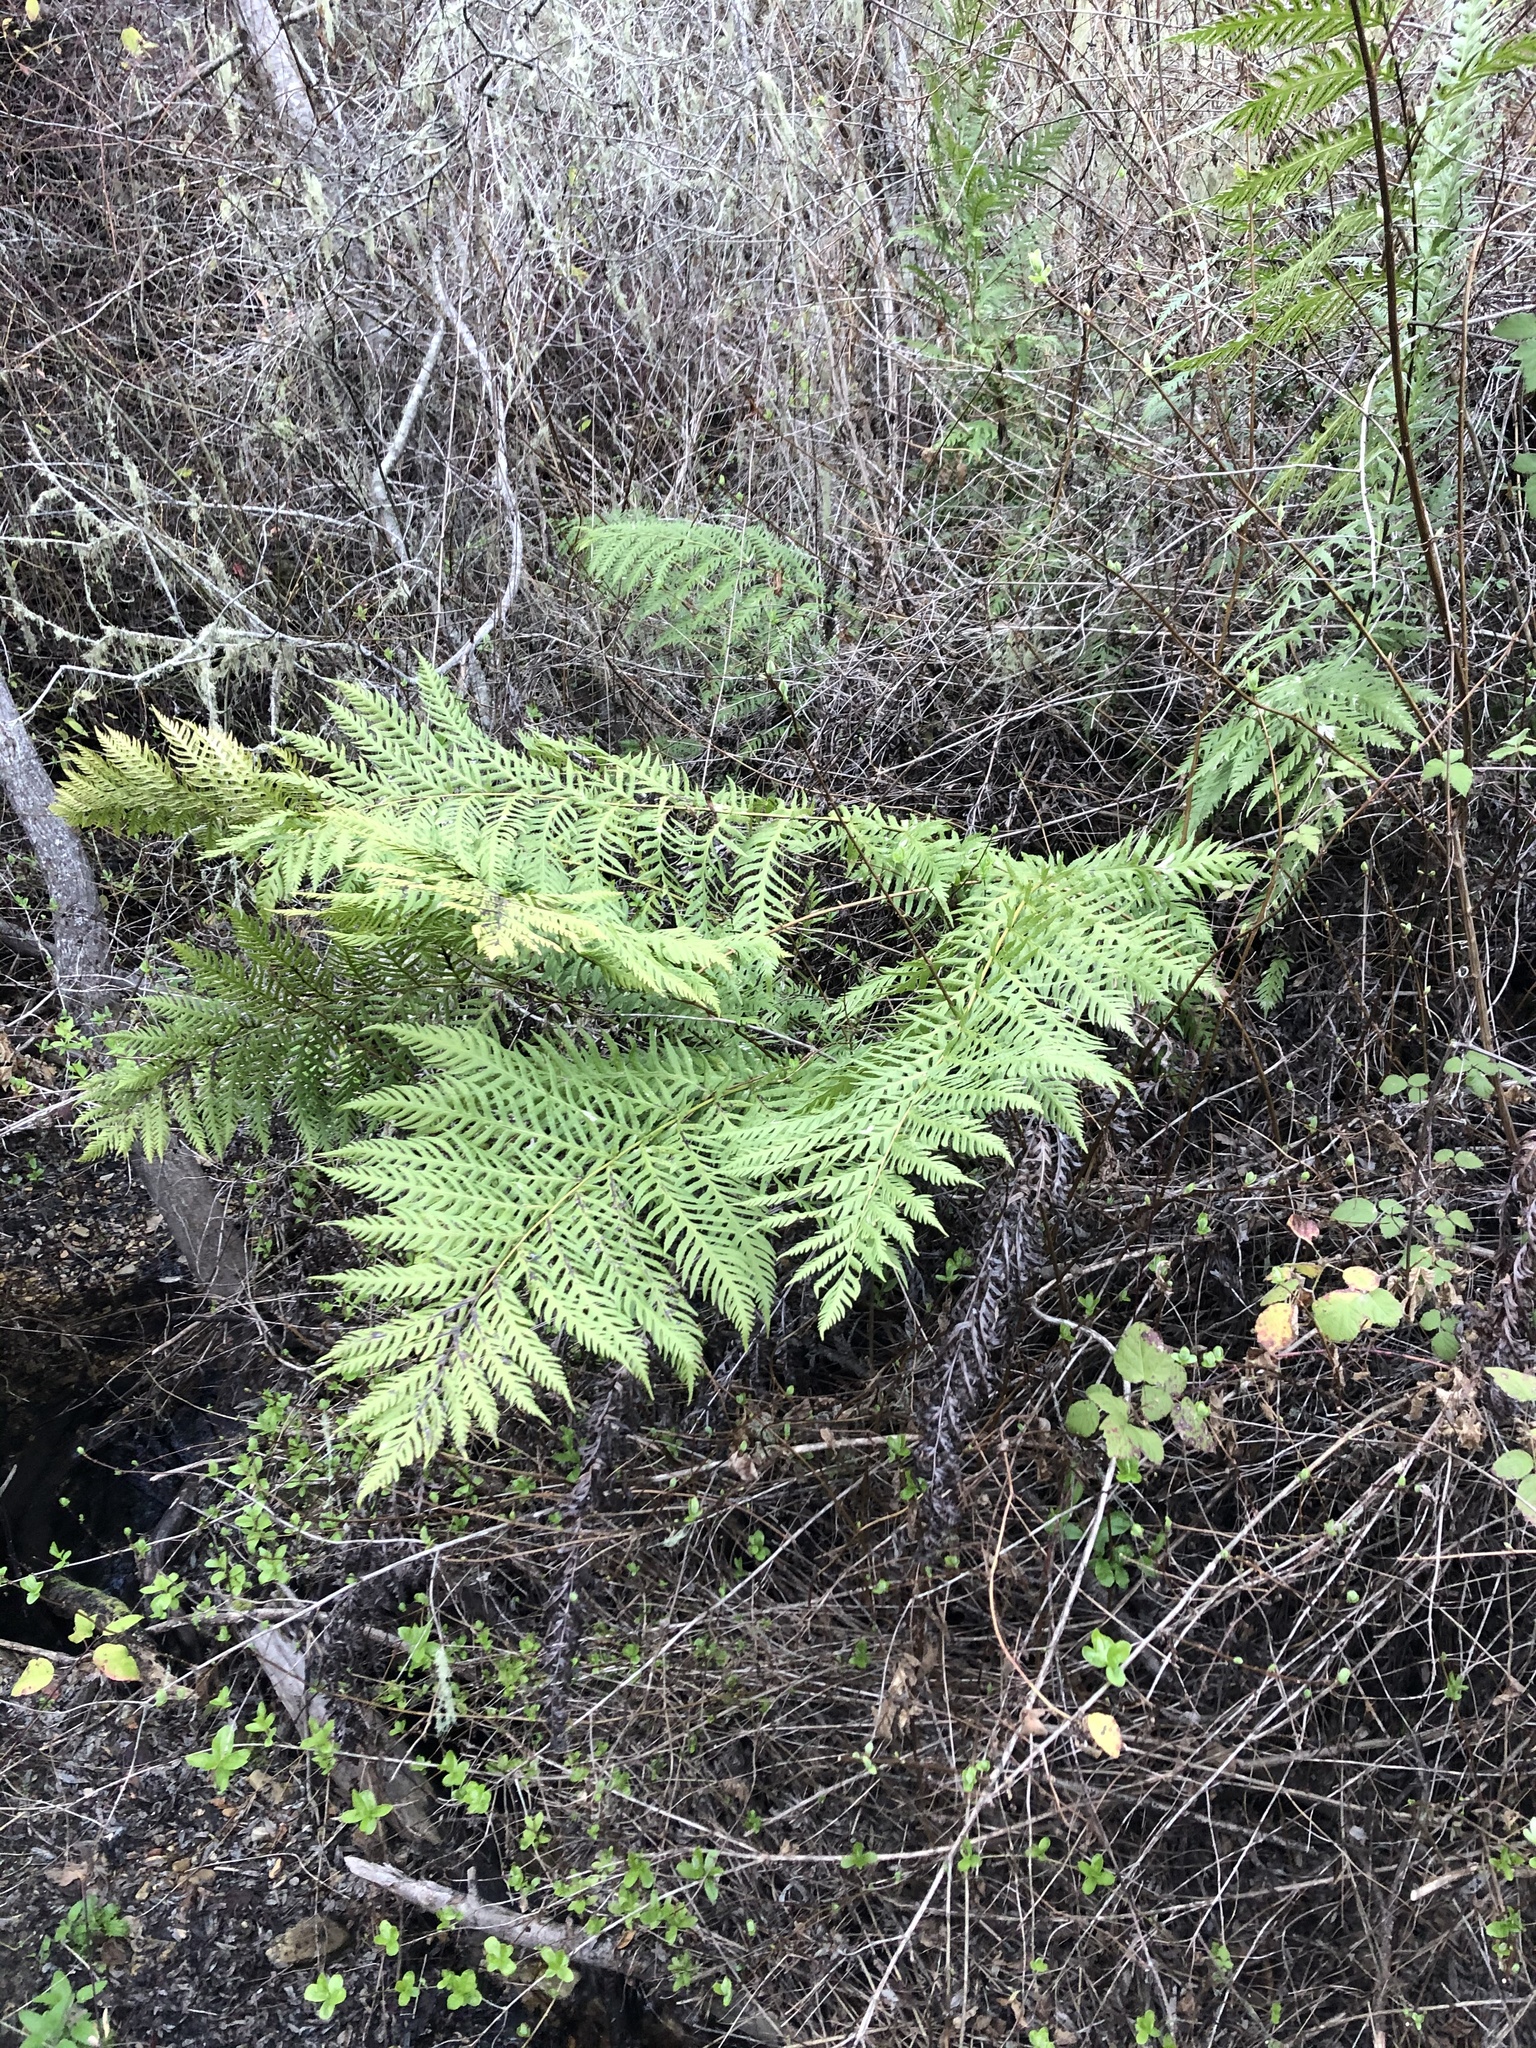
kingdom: Plantae
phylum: Tracheophyta
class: Polypodiopsida
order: Polypodiales
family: Blechnaceae
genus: Woodwardia
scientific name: Woodwardia fimbriata
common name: Giant chain fern
